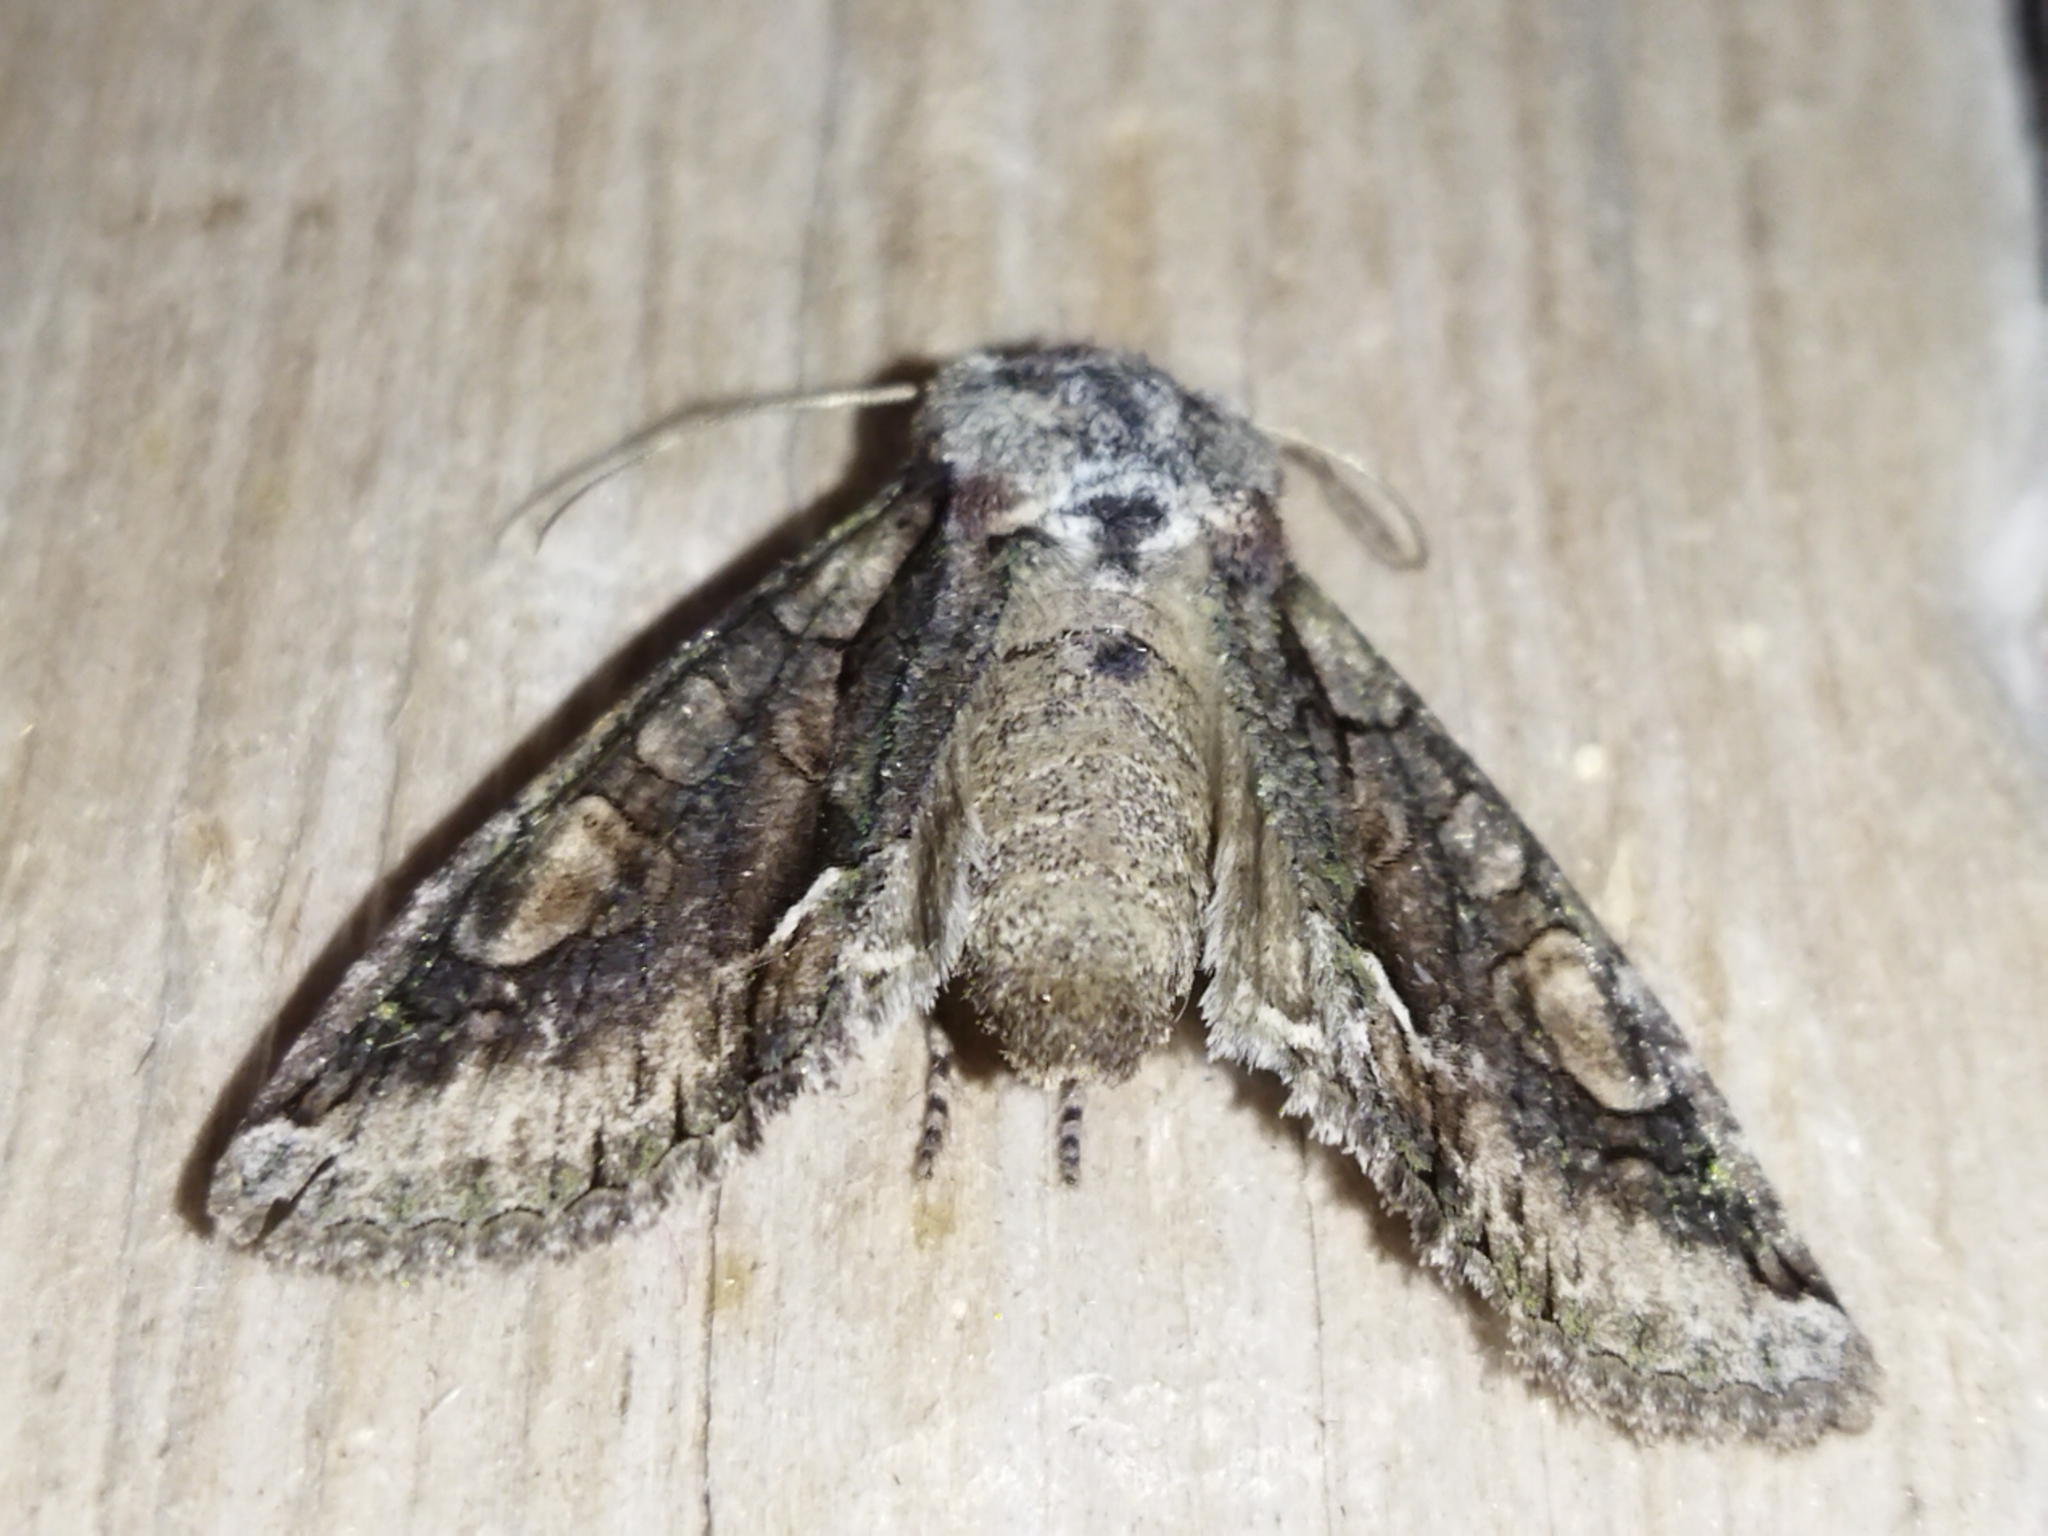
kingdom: Animalia
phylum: Arthropoda
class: Insecta
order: Lepidoptera
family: Noctuidae
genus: Allophyes
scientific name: Allophyes oxyacanthae
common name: Green-brindled crescent
